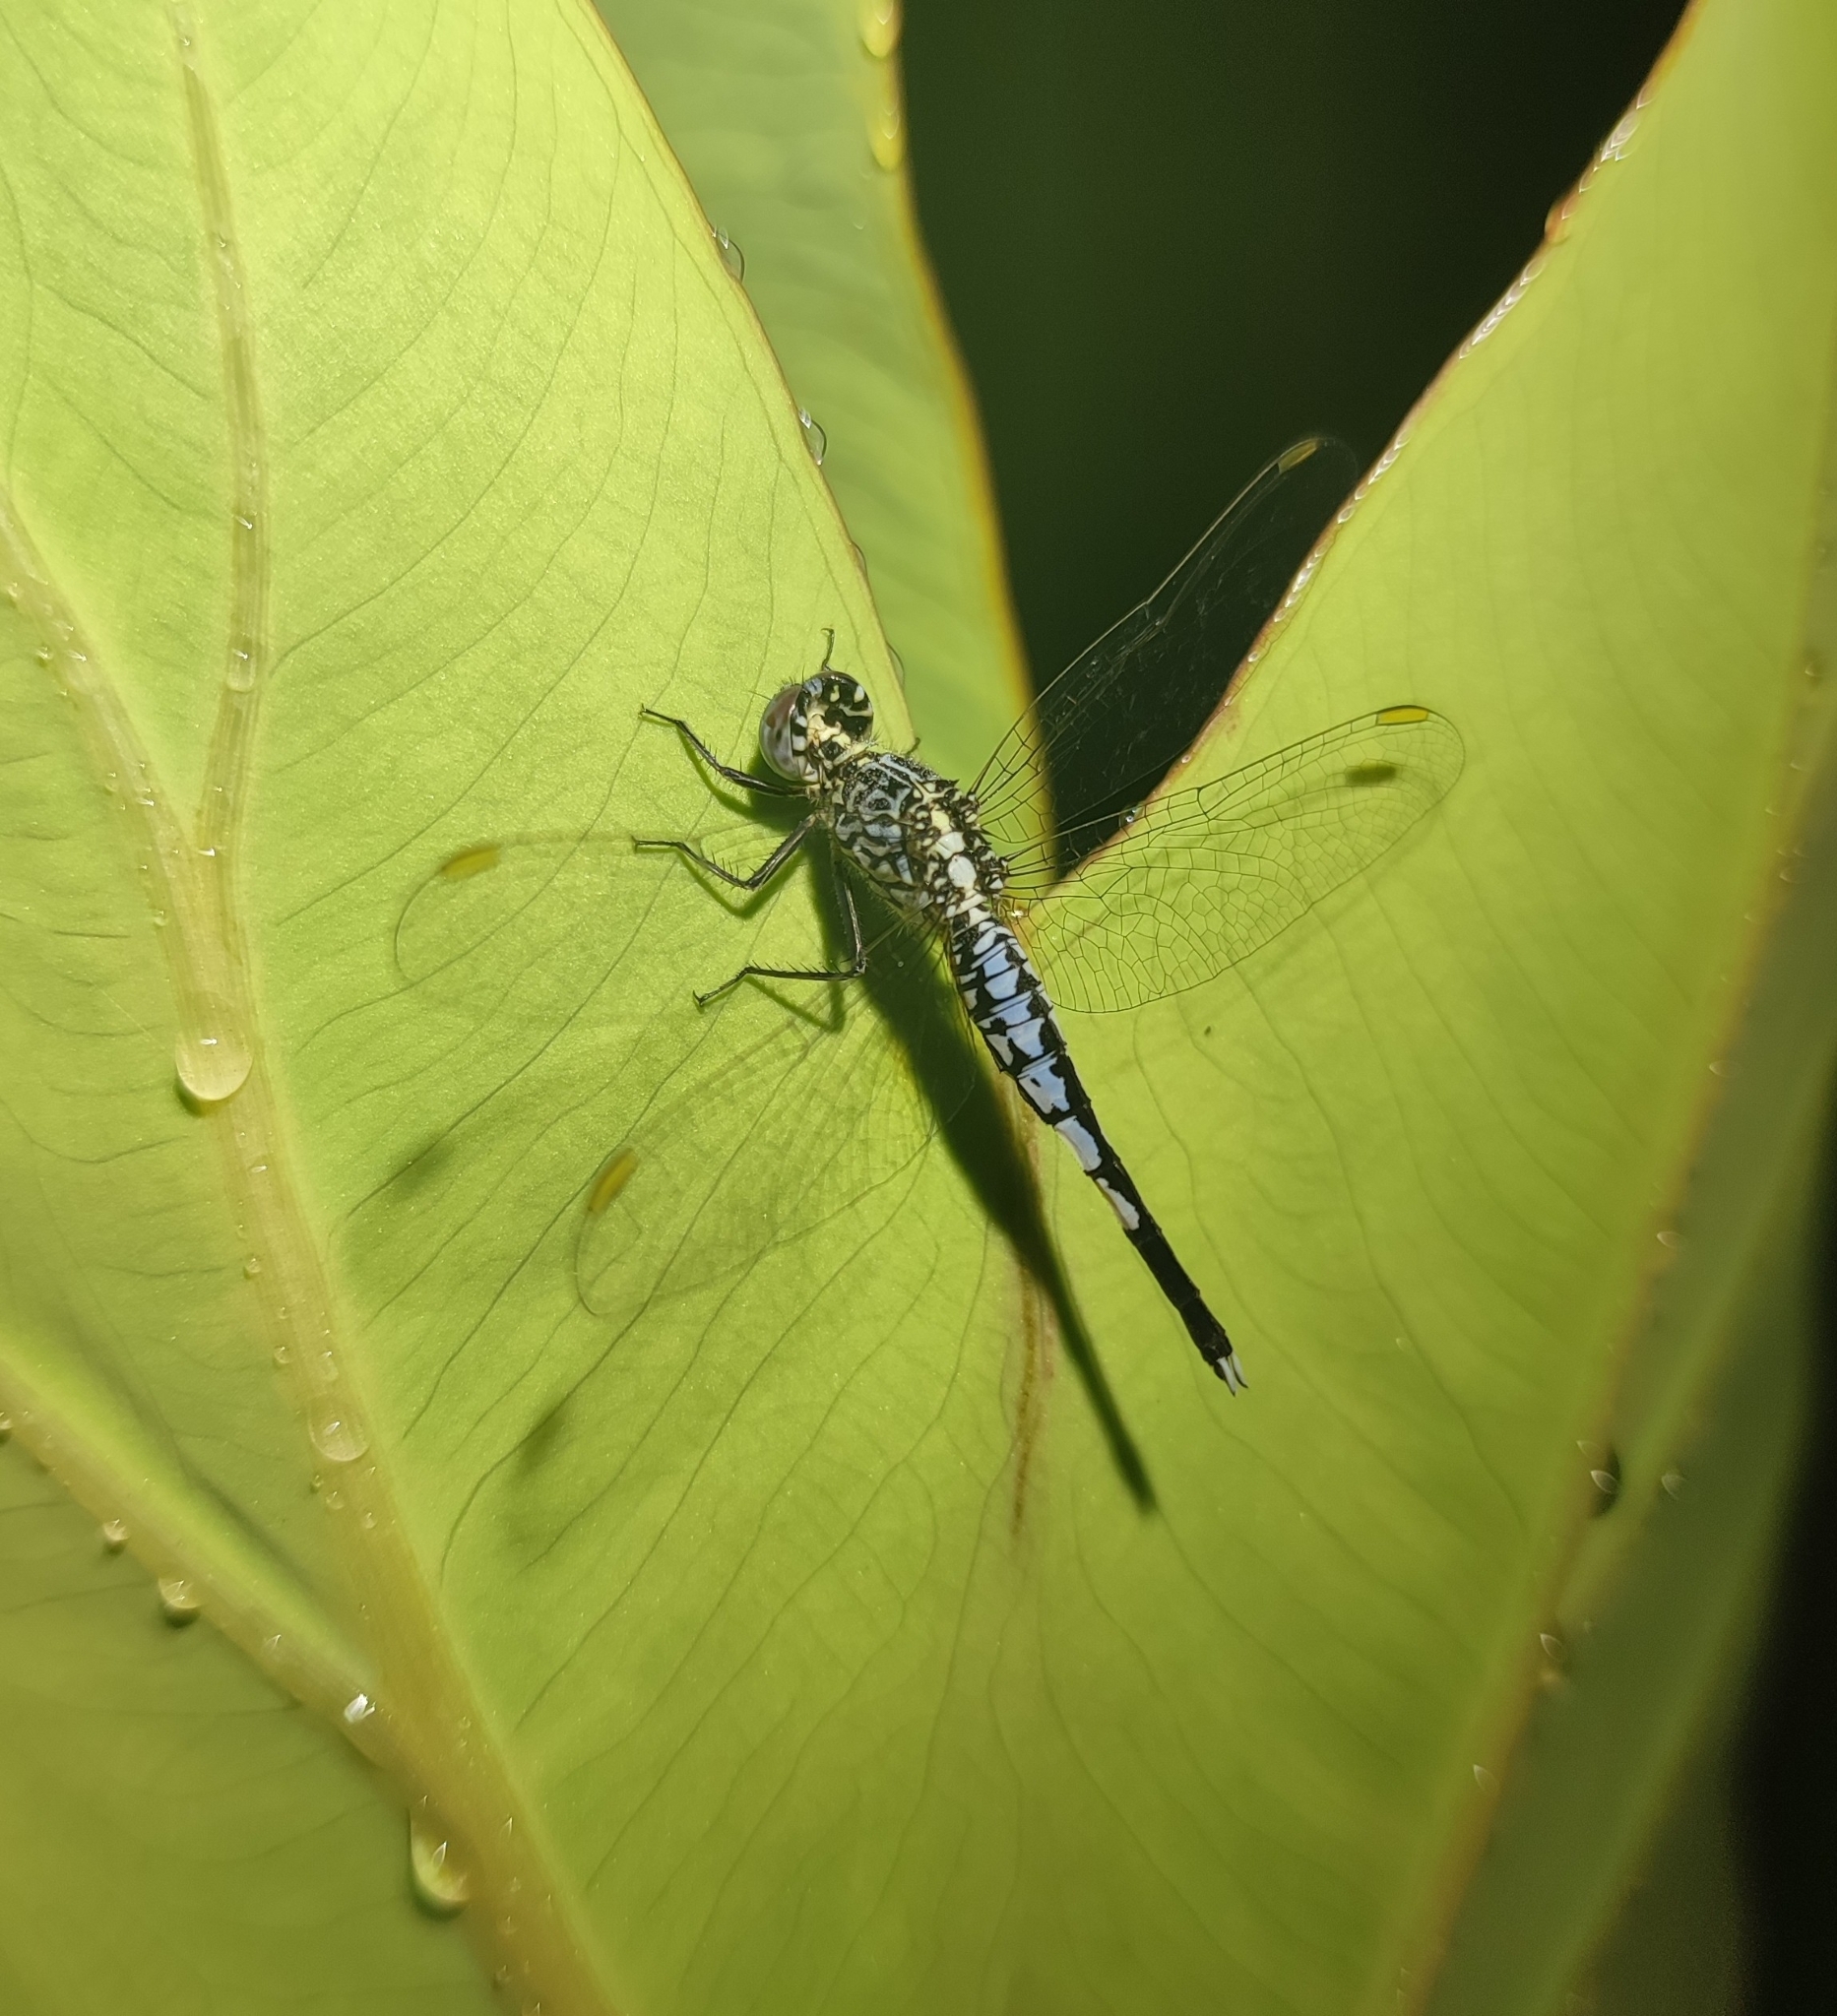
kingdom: Animalia
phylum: Arthropoda
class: Insecta
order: Odonata
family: Libellulidae
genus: Acisoma
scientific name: Acisoma panorpoides
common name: Asian pintail
